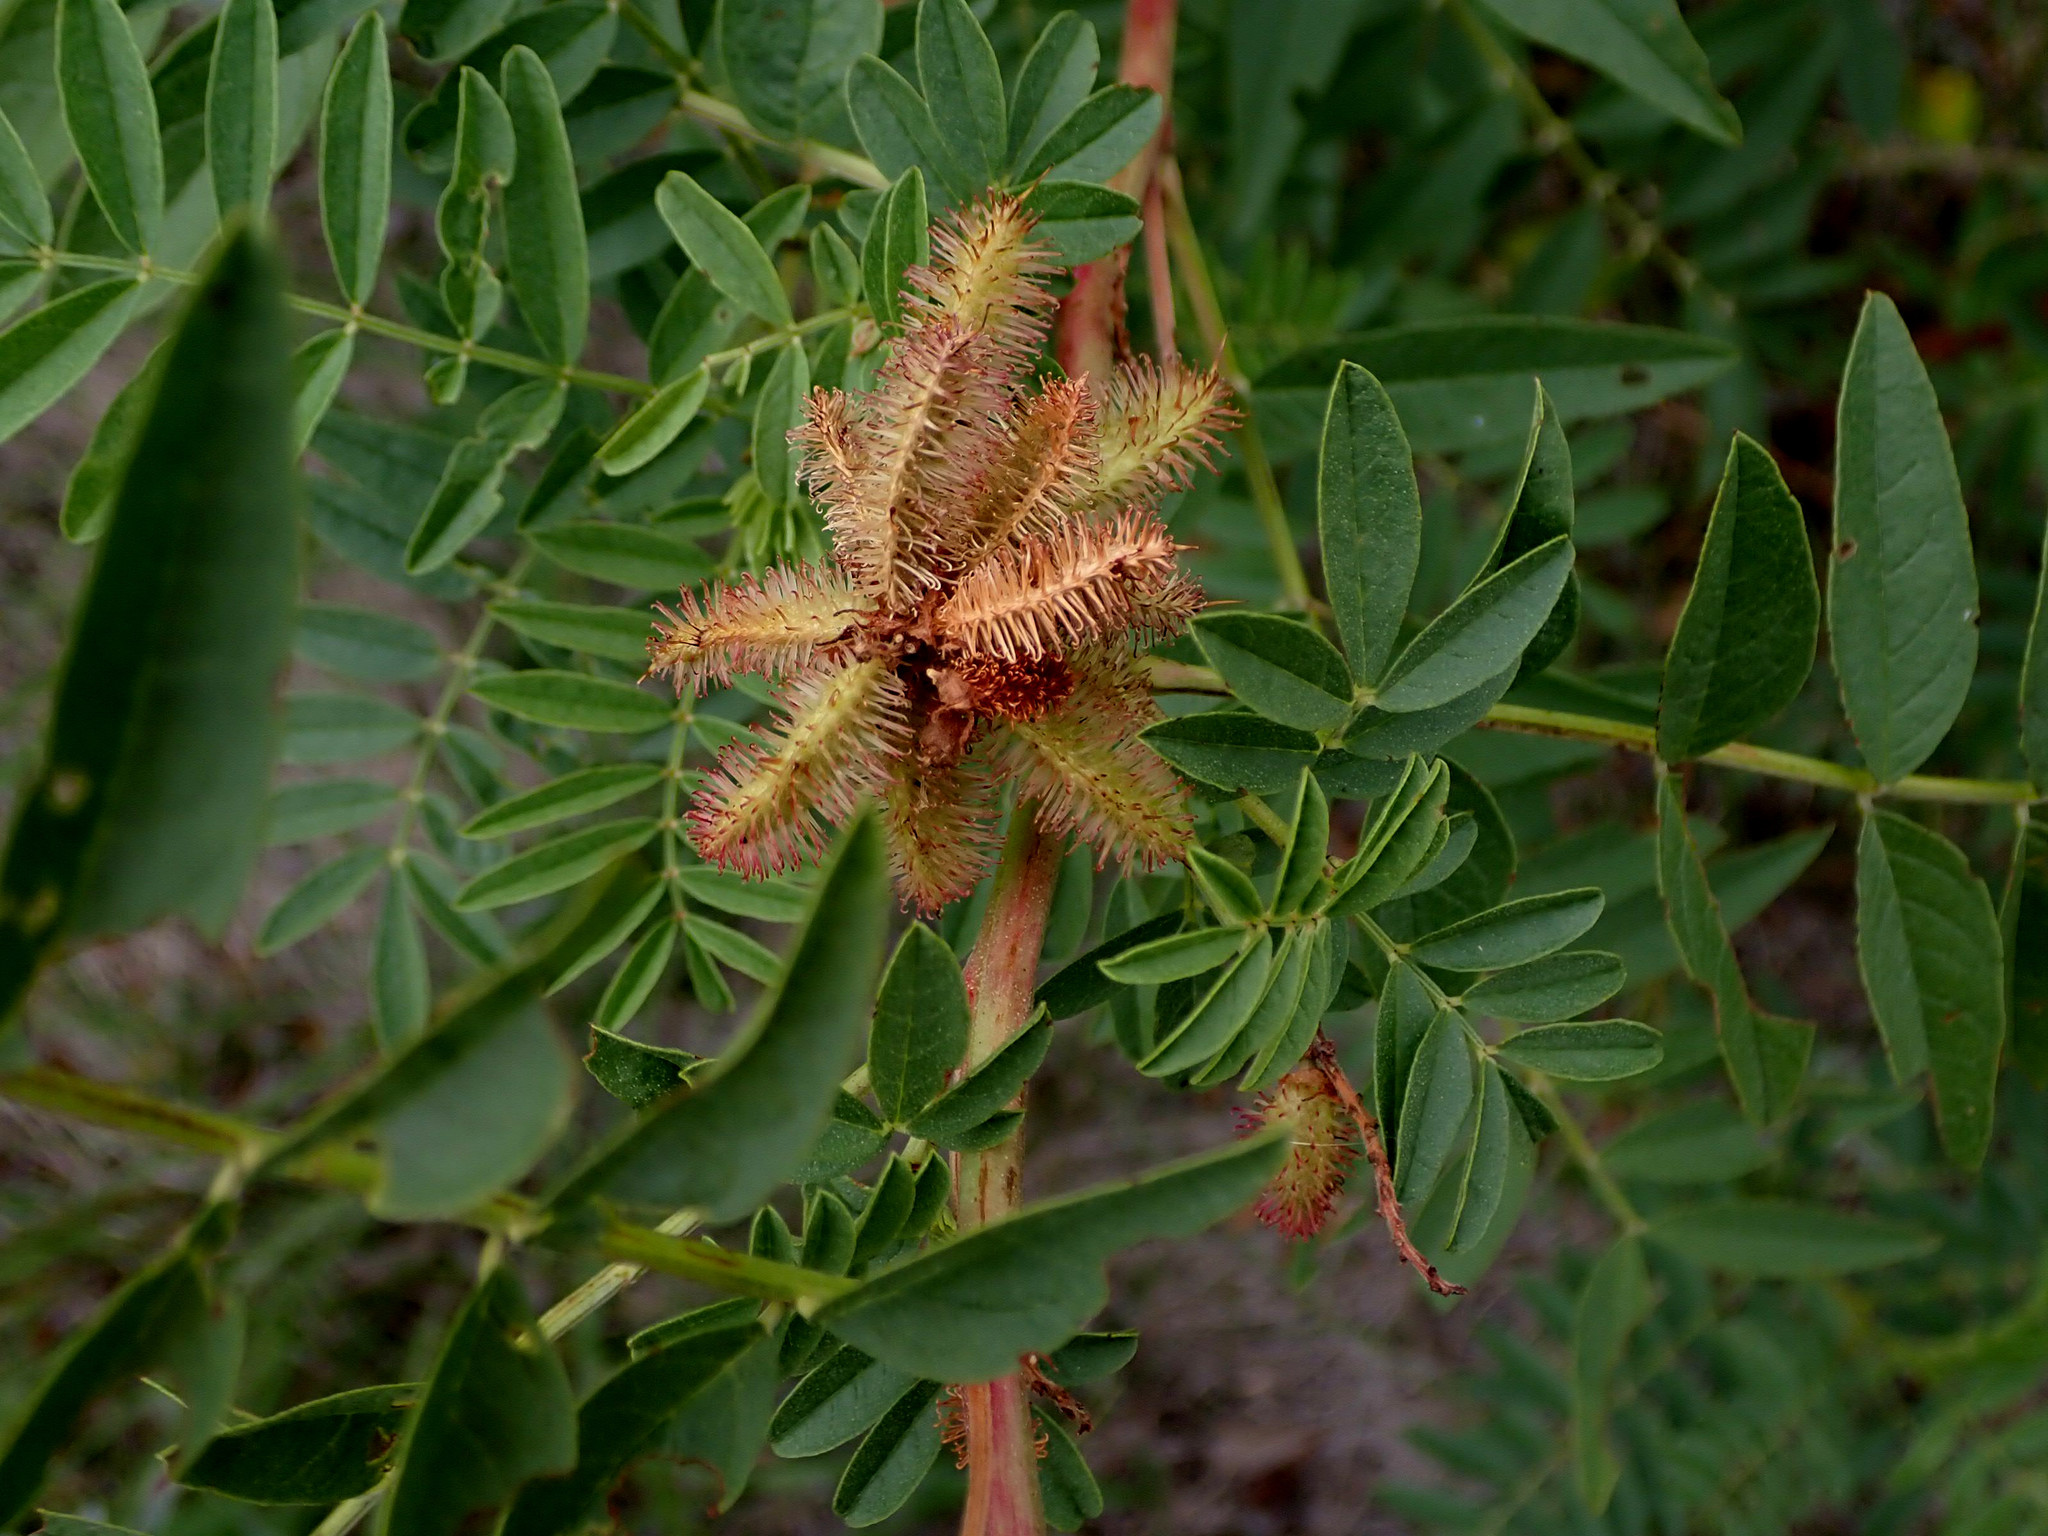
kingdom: Plantae
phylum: Tracheophyta
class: Magnoliopsida
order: Fabales
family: Fabaceae
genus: Glycyrrhiza
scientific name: Glycyrrhiza lepidota
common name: American liquorice
